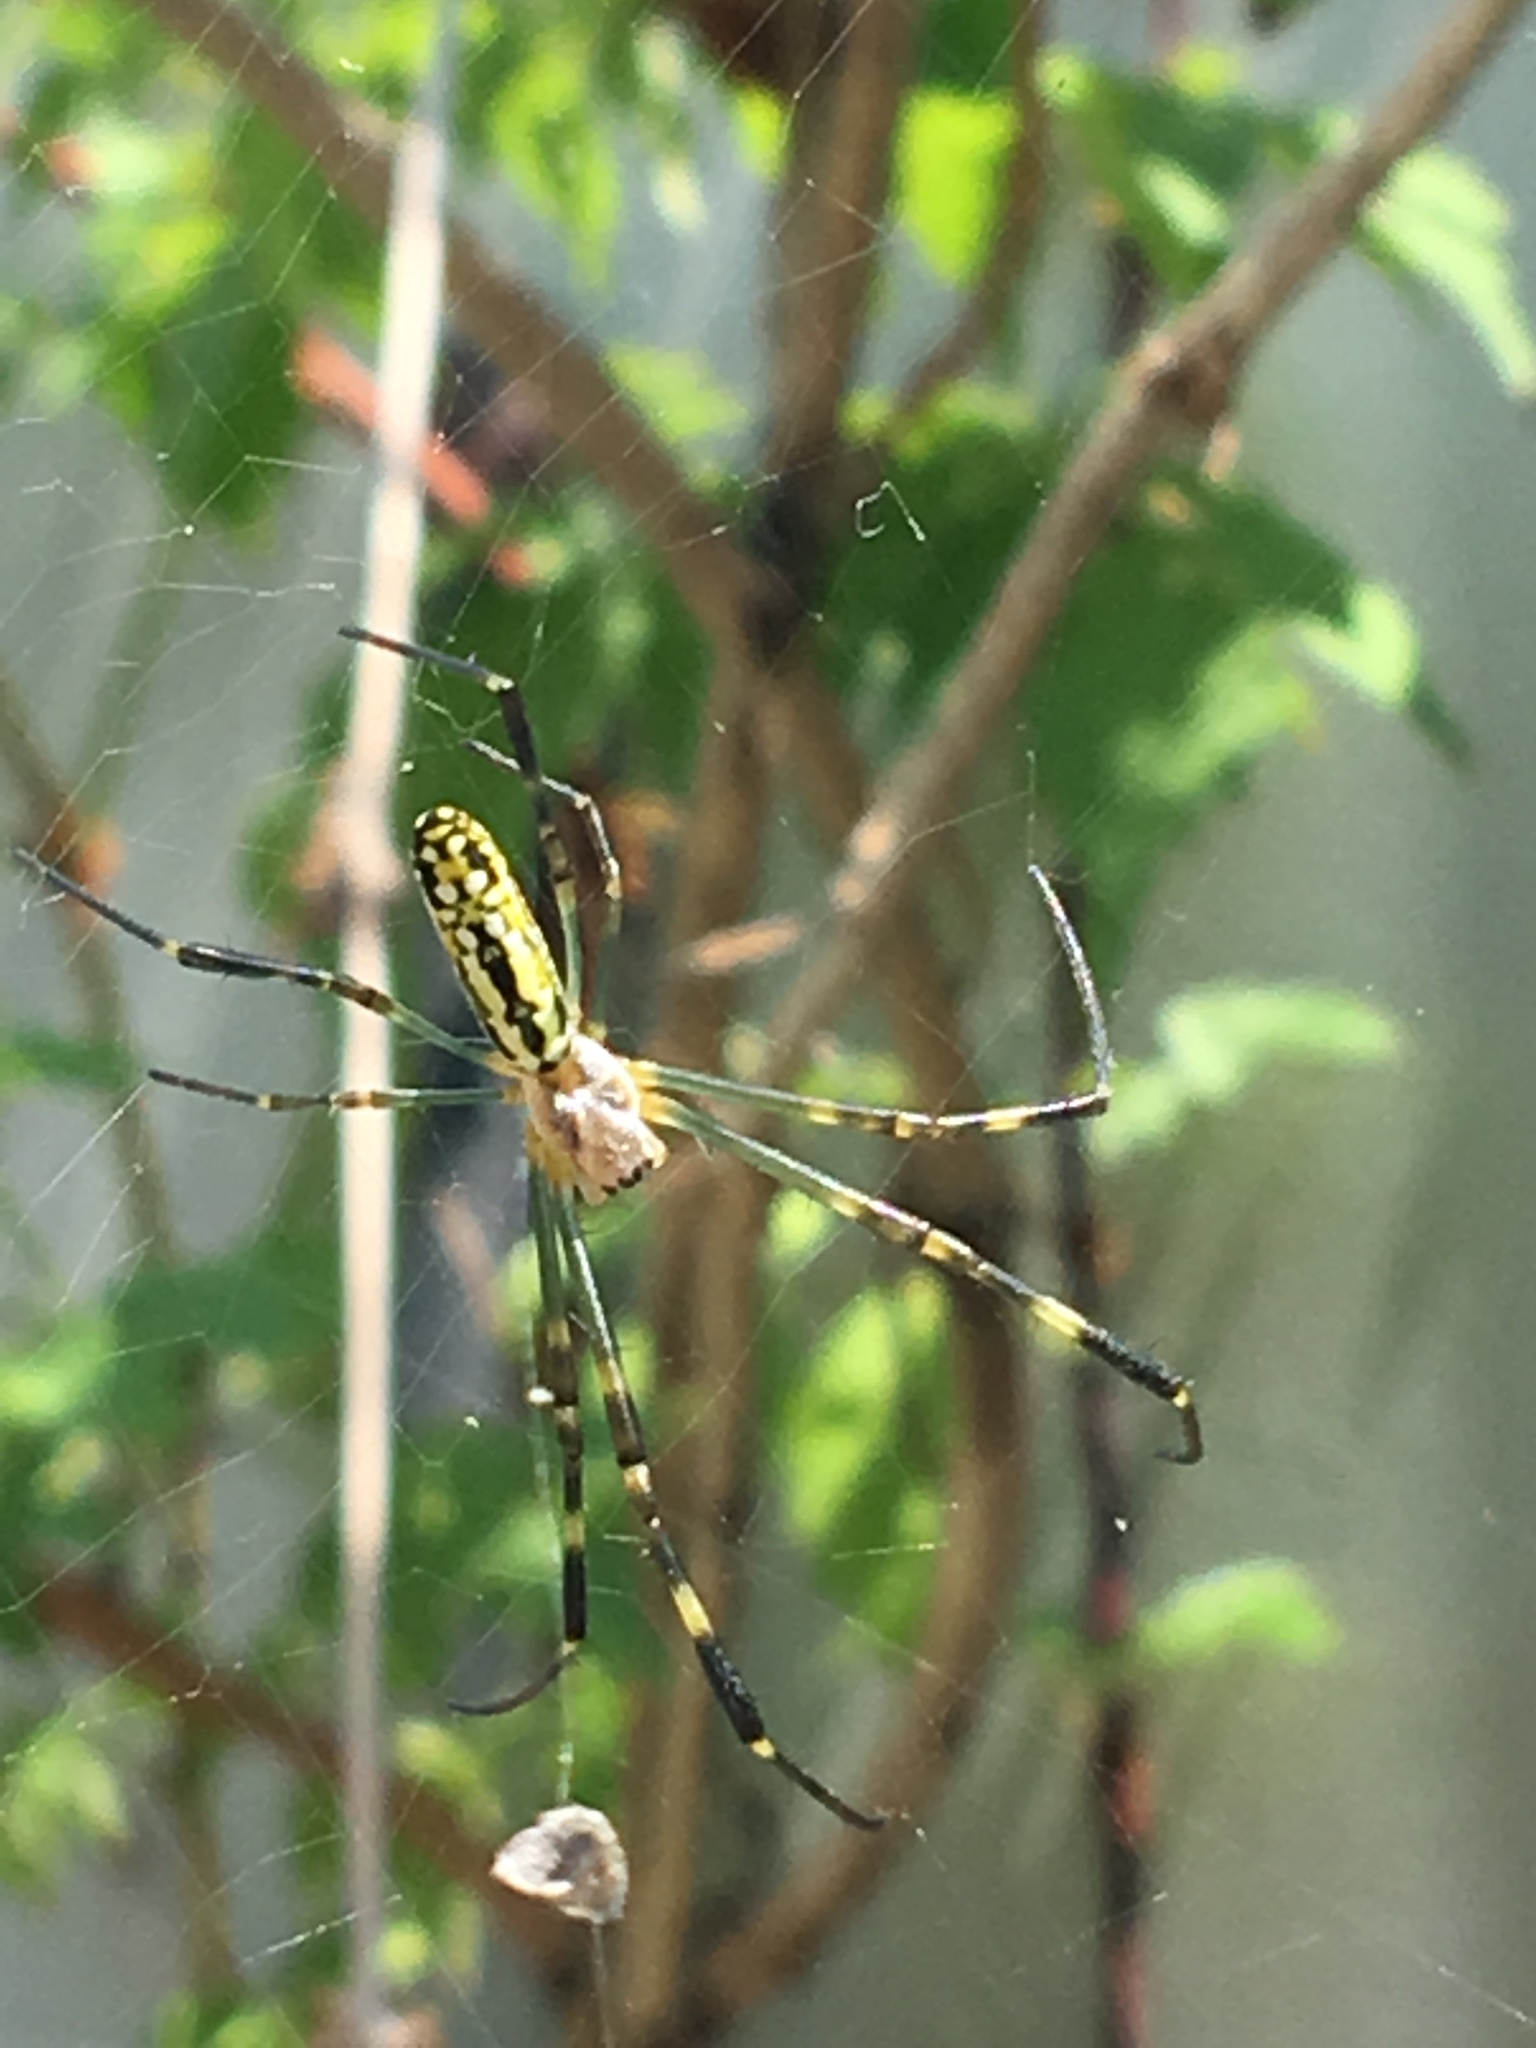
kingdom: Animalia
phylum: Arthropoda
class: Arachnida
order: Araneae
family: Araneidae
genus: Trichonephila
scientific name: Trichonephila clavata
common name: Jorō spider
